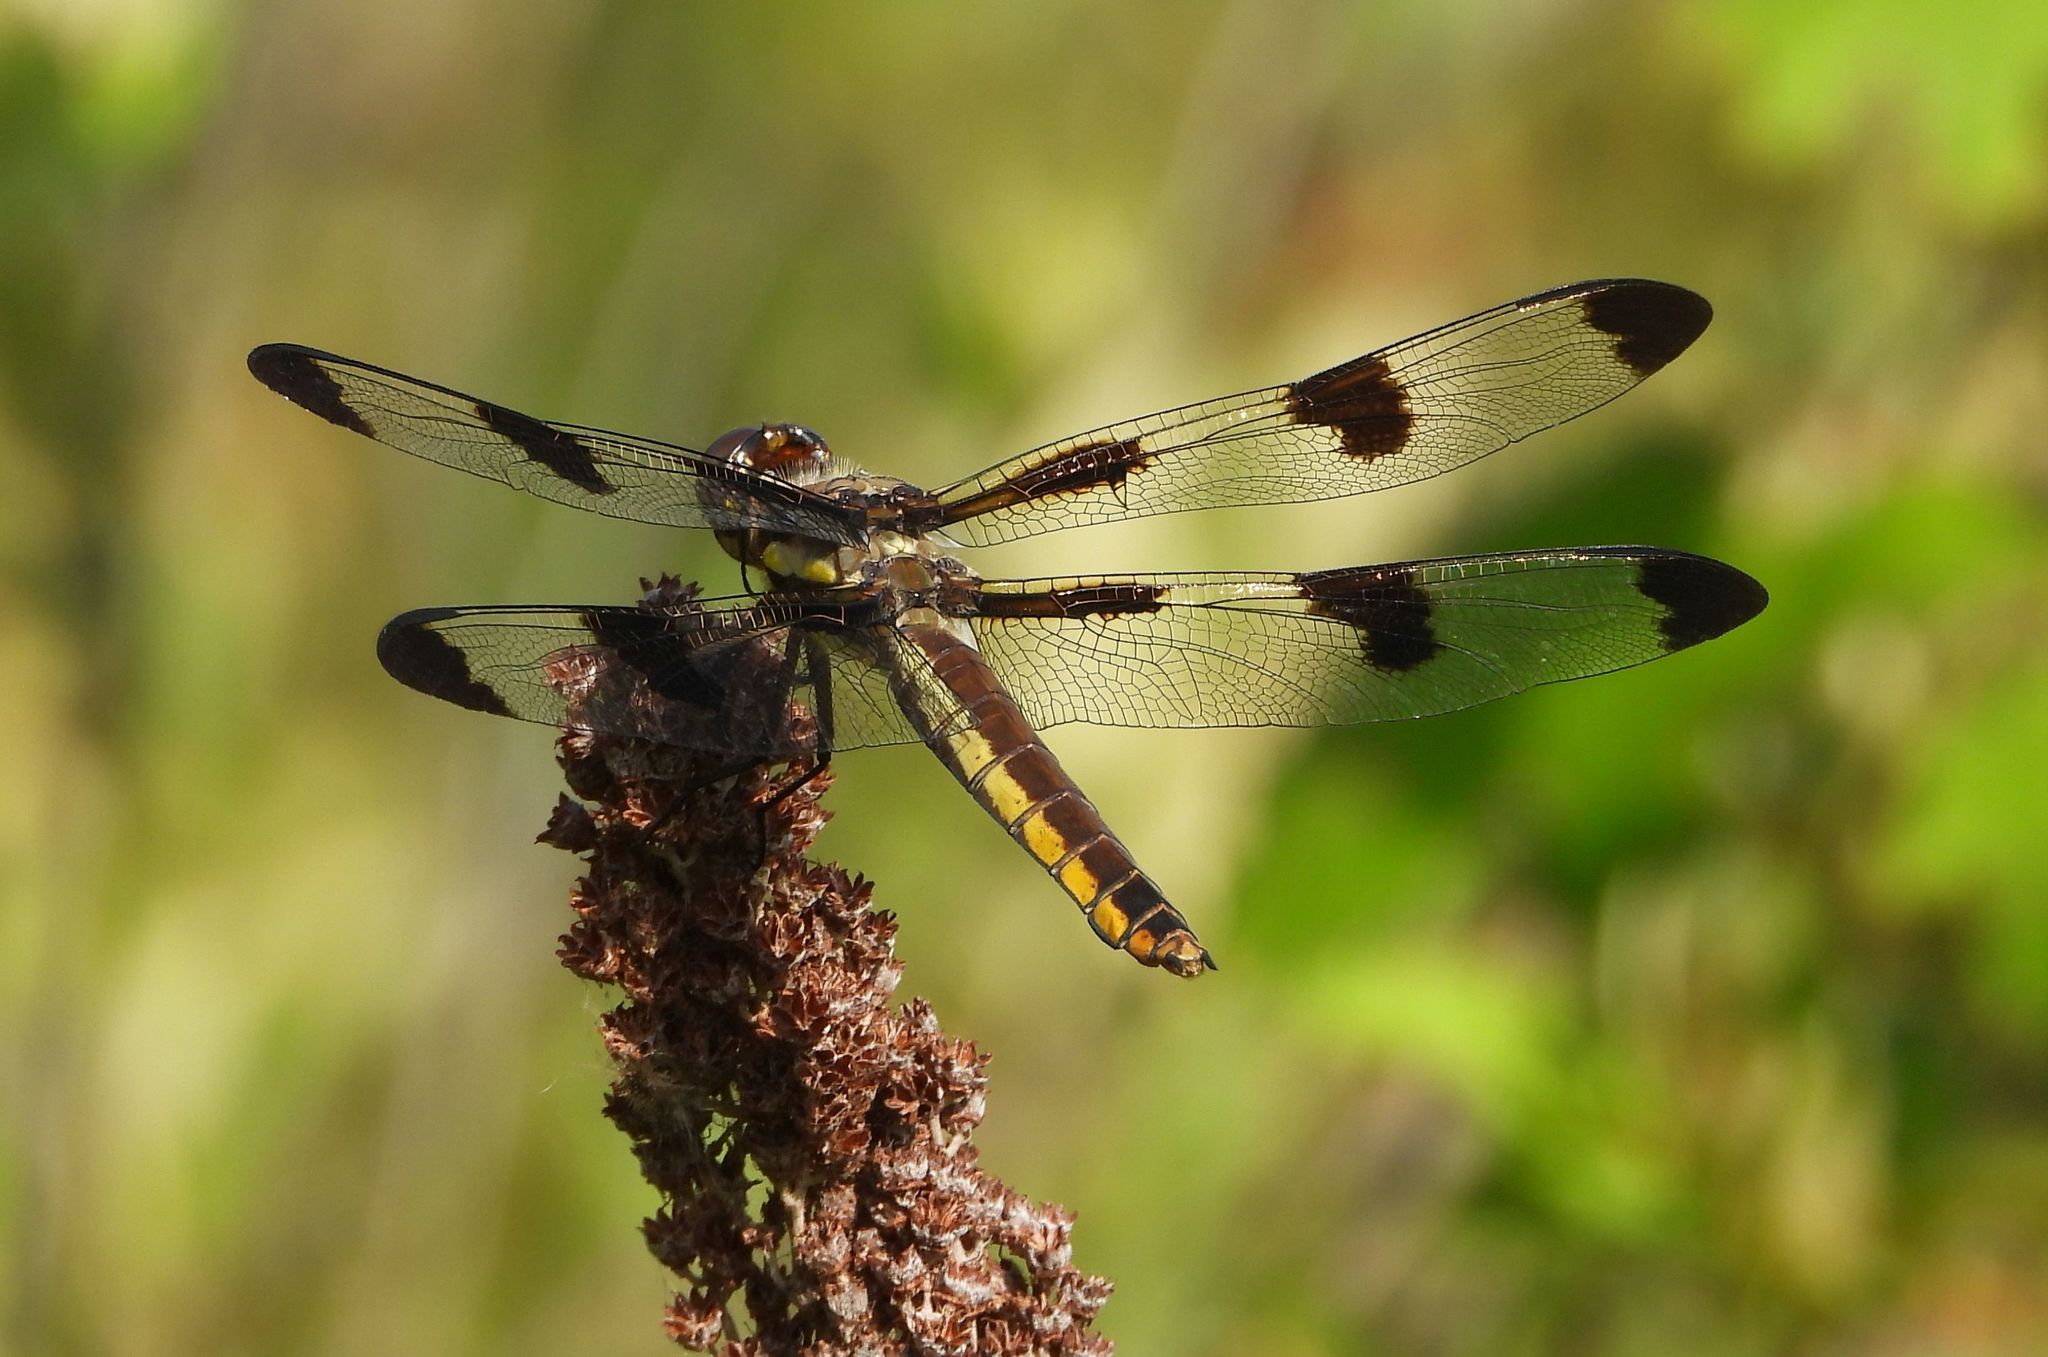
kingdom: Animalia
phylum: Arthropoda
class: Insecta
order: Odonata
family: Libellulidae
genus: Libellula
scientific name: Libellula pulchella
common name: Twelve-spotted skimmer
